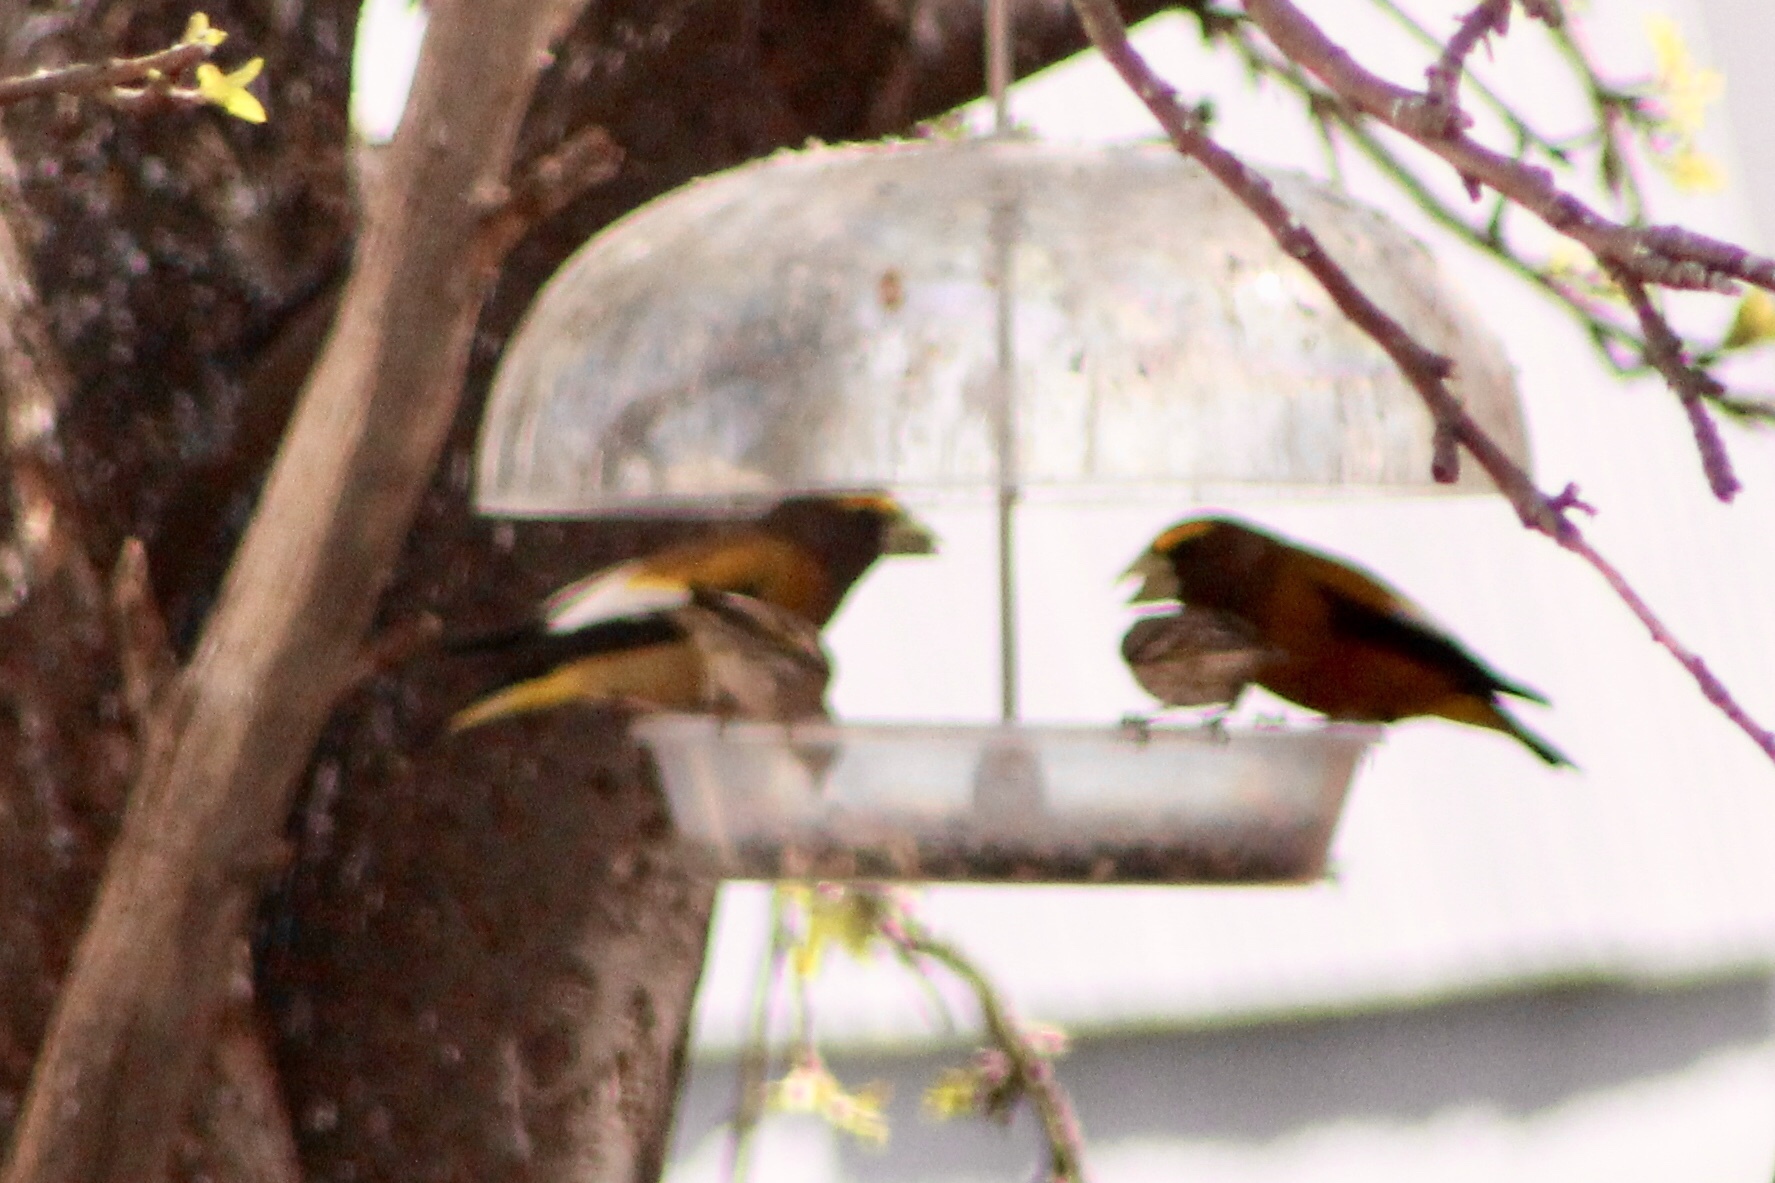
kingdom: Animalia
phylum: Chordata
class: Aves
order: Passeriformes
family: Fringillidae
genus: Hesperiphona
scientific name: Hesperiphona vespertina
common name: Evening grosbeak
